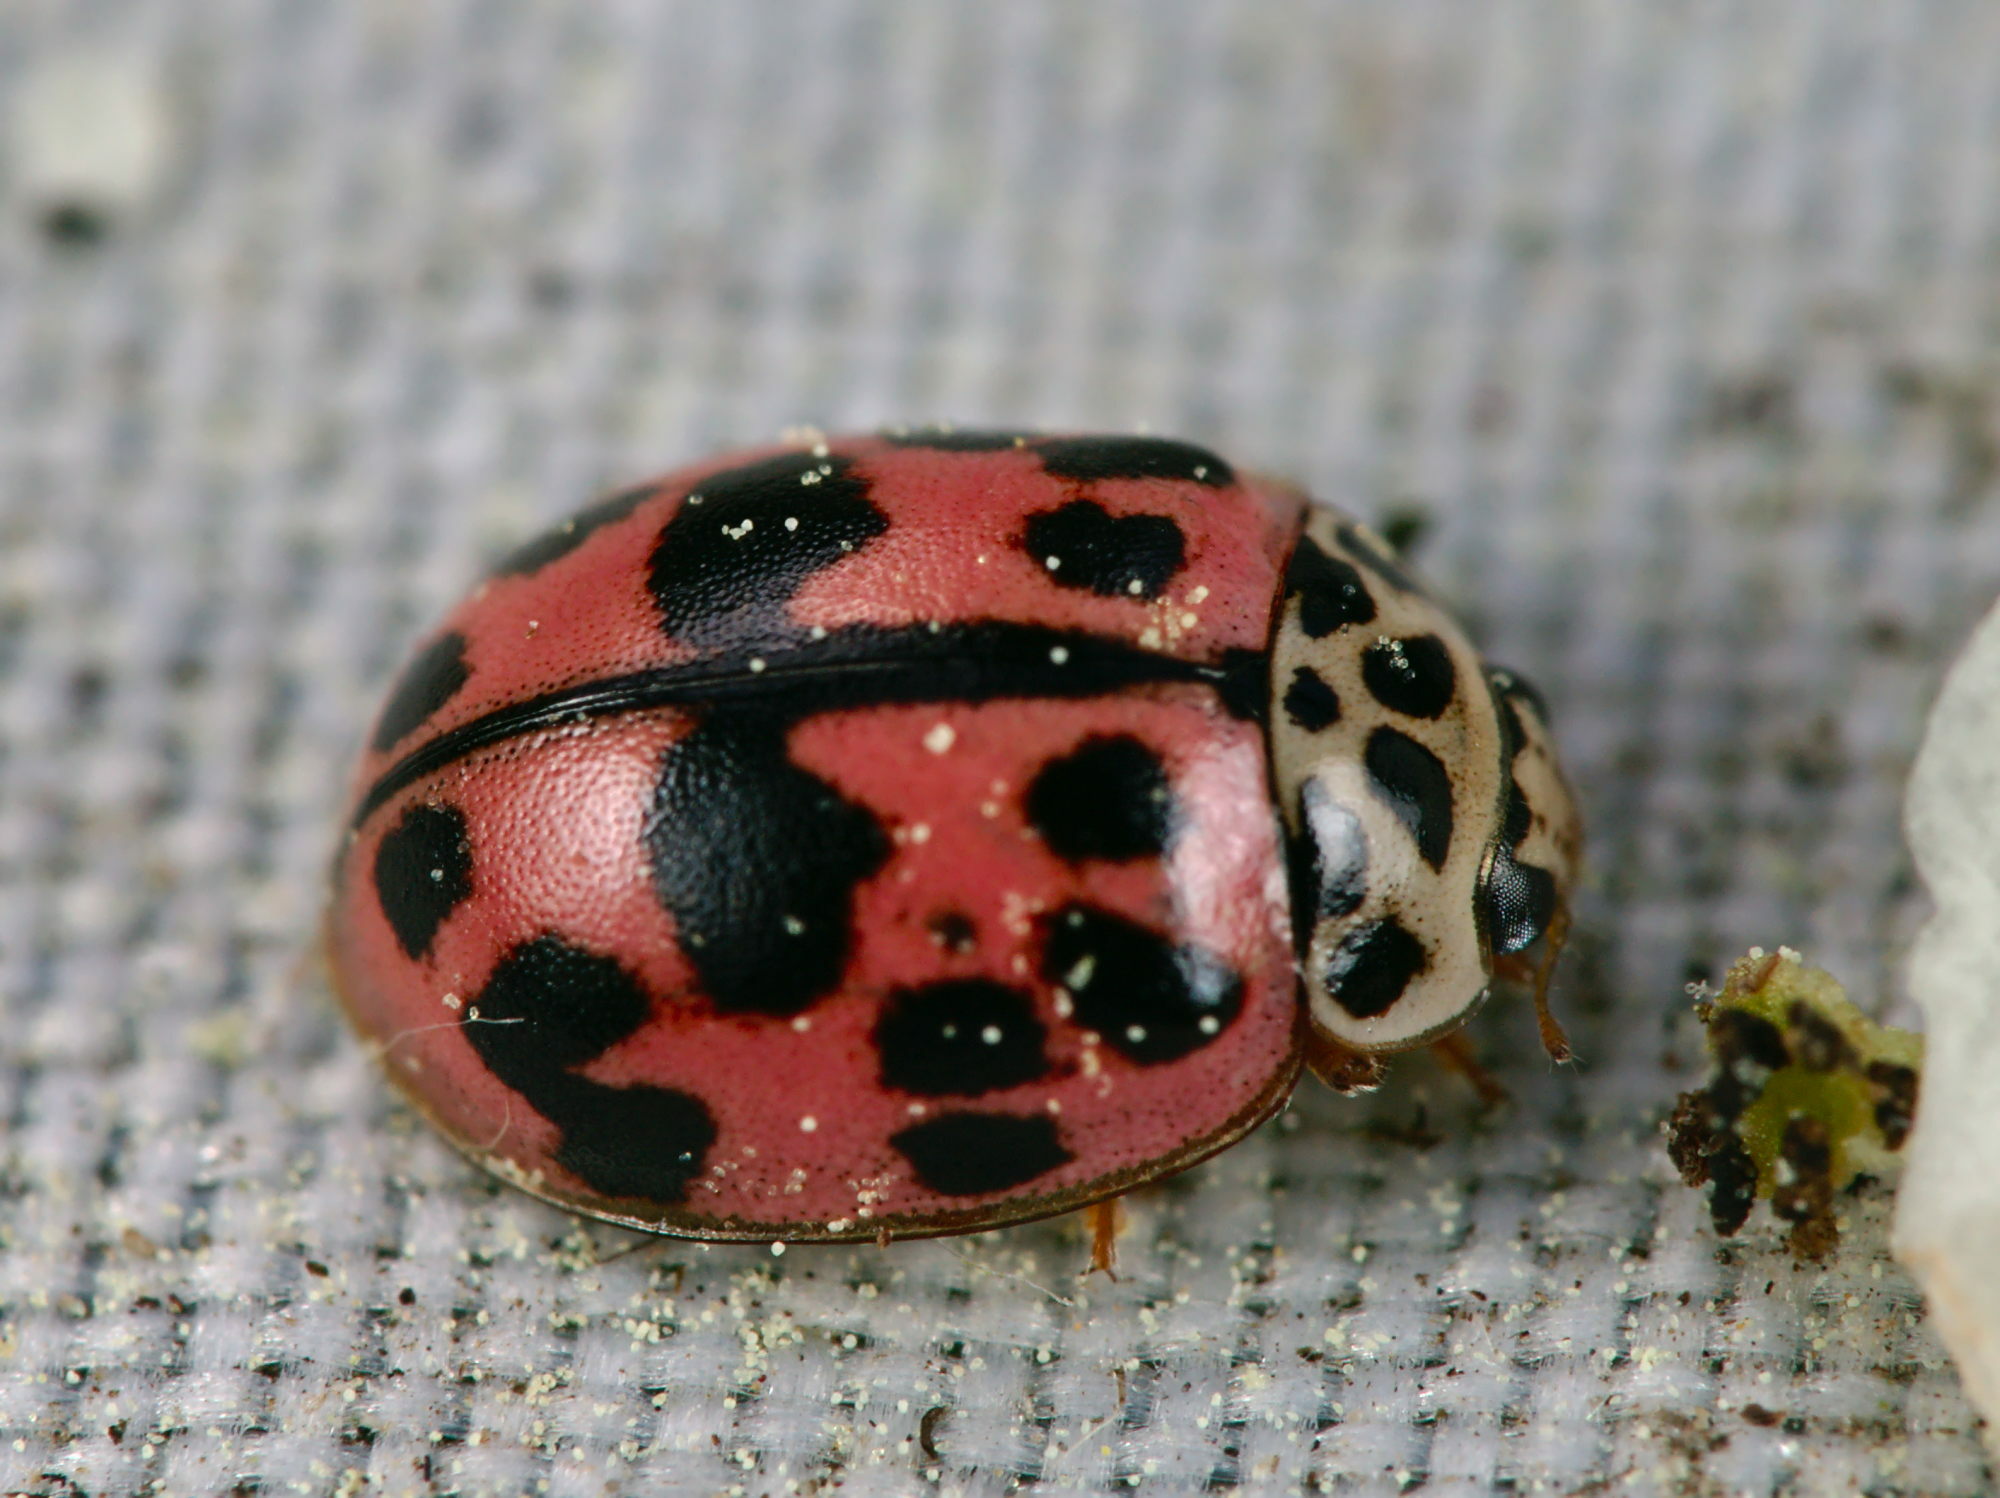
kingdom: Animalia
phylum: Arthropoda
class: Insecta
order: Coleoptera
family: Coccinellidae
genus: Oenopia
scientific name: Oenopia conglobata
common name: Ladybird beetle
